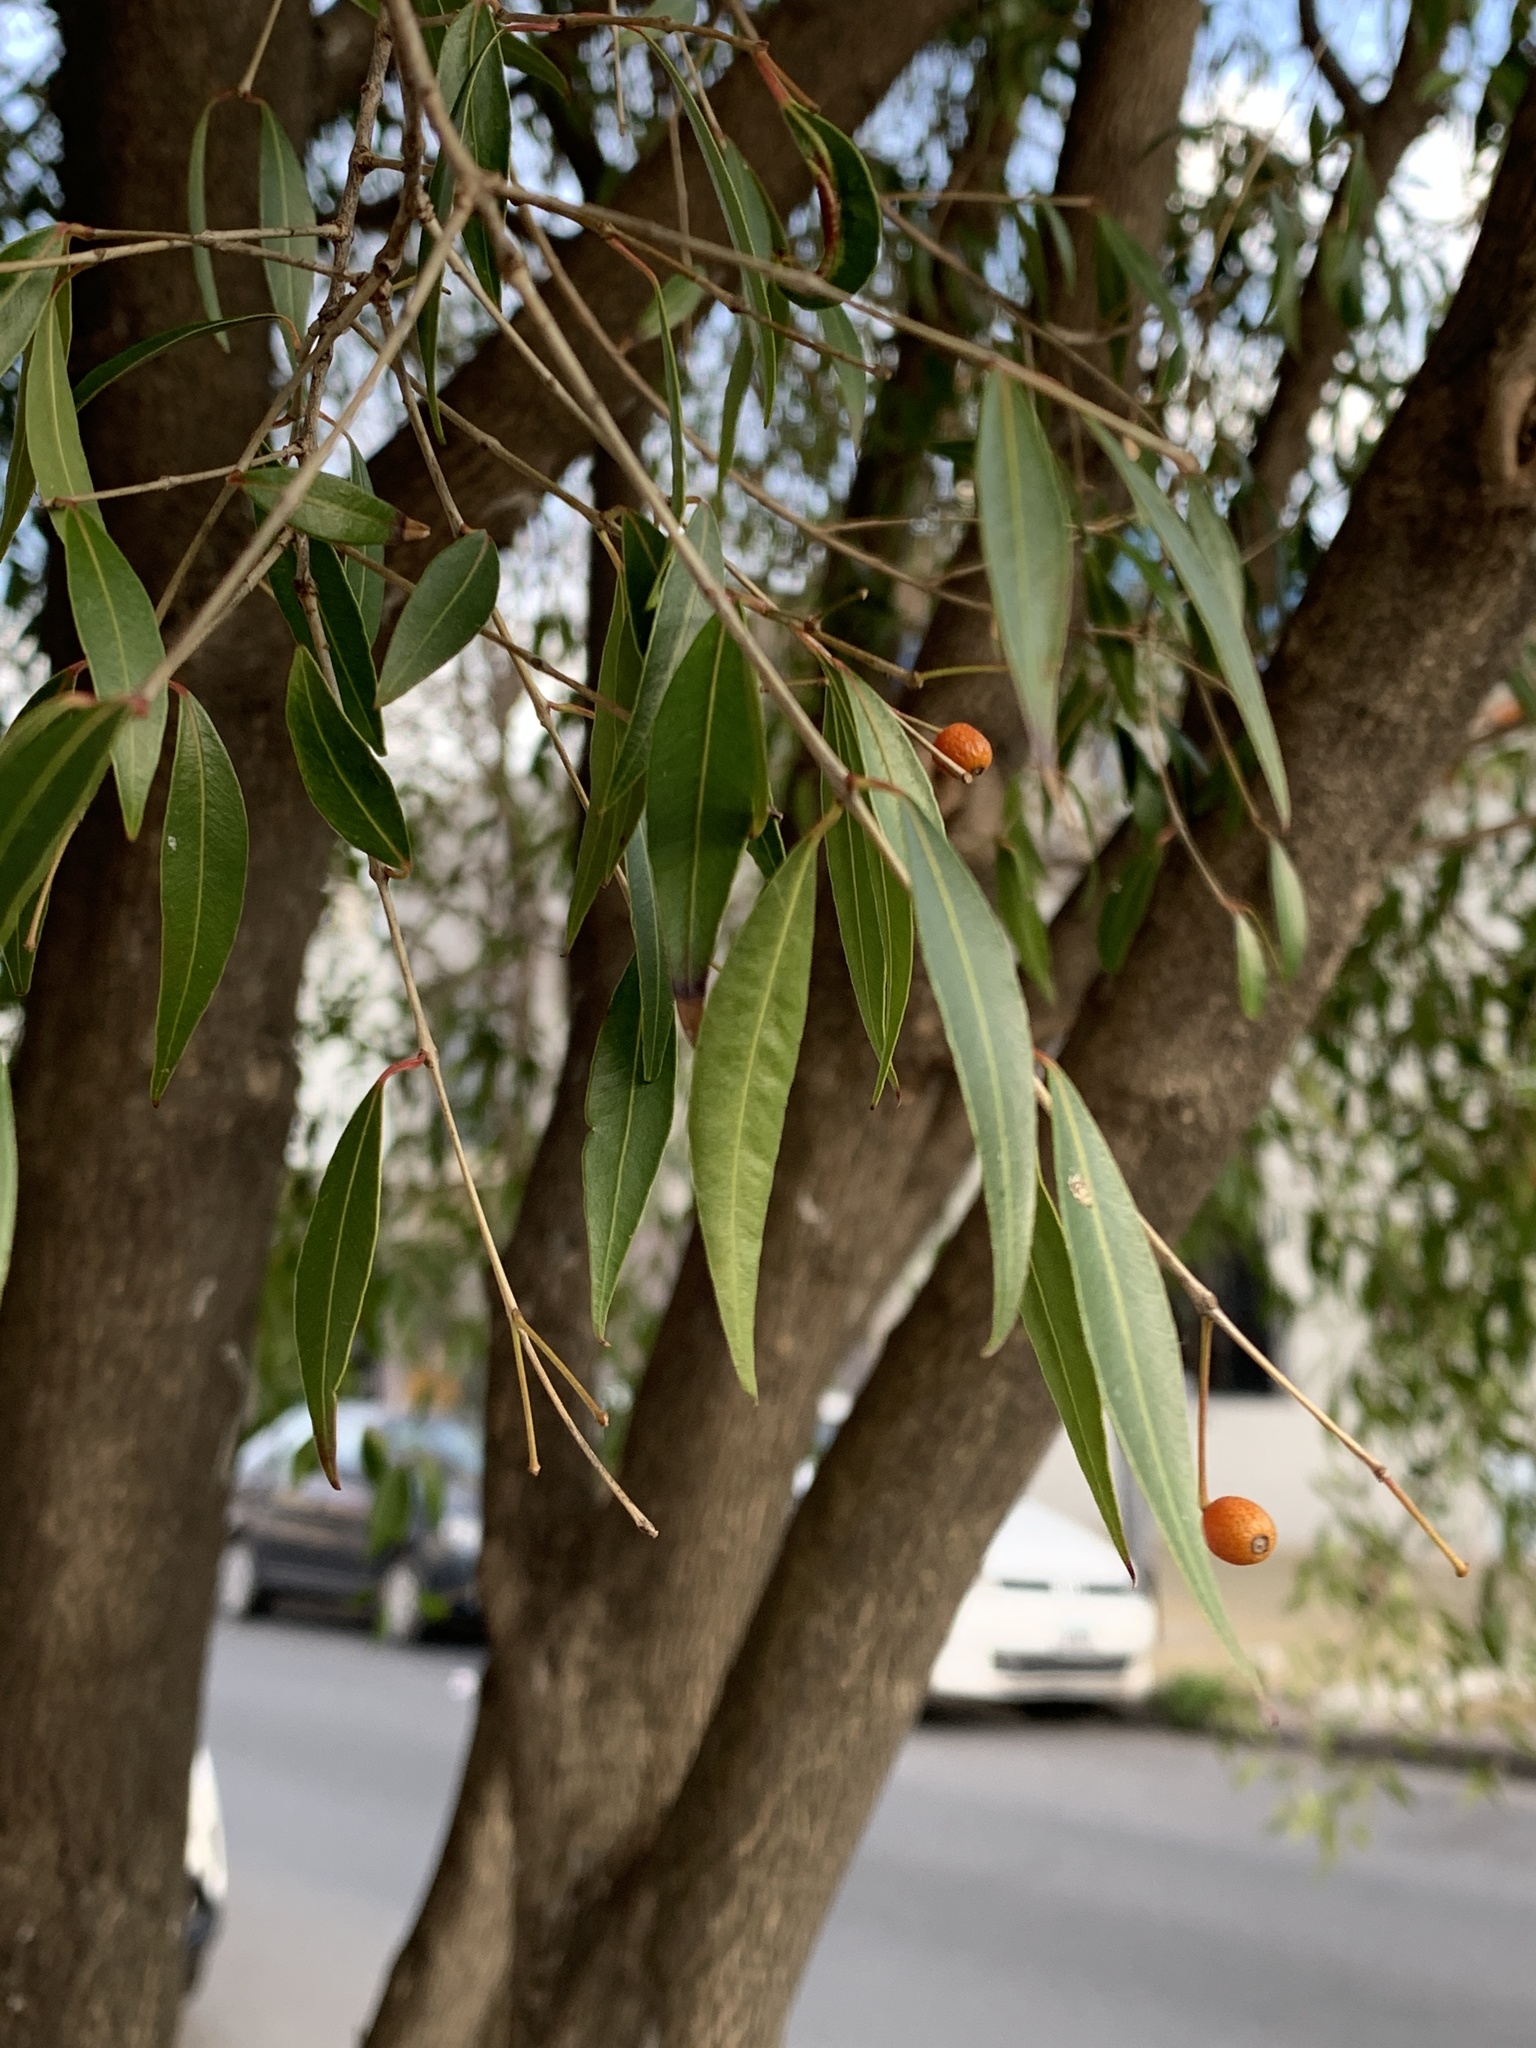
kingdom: Plantae
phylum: Tracheophyta
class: Magnoliopsida
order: Myrtales
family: Myrtaceae
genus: Blepharocalyx
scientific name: Blepharocalyx salicifolius
